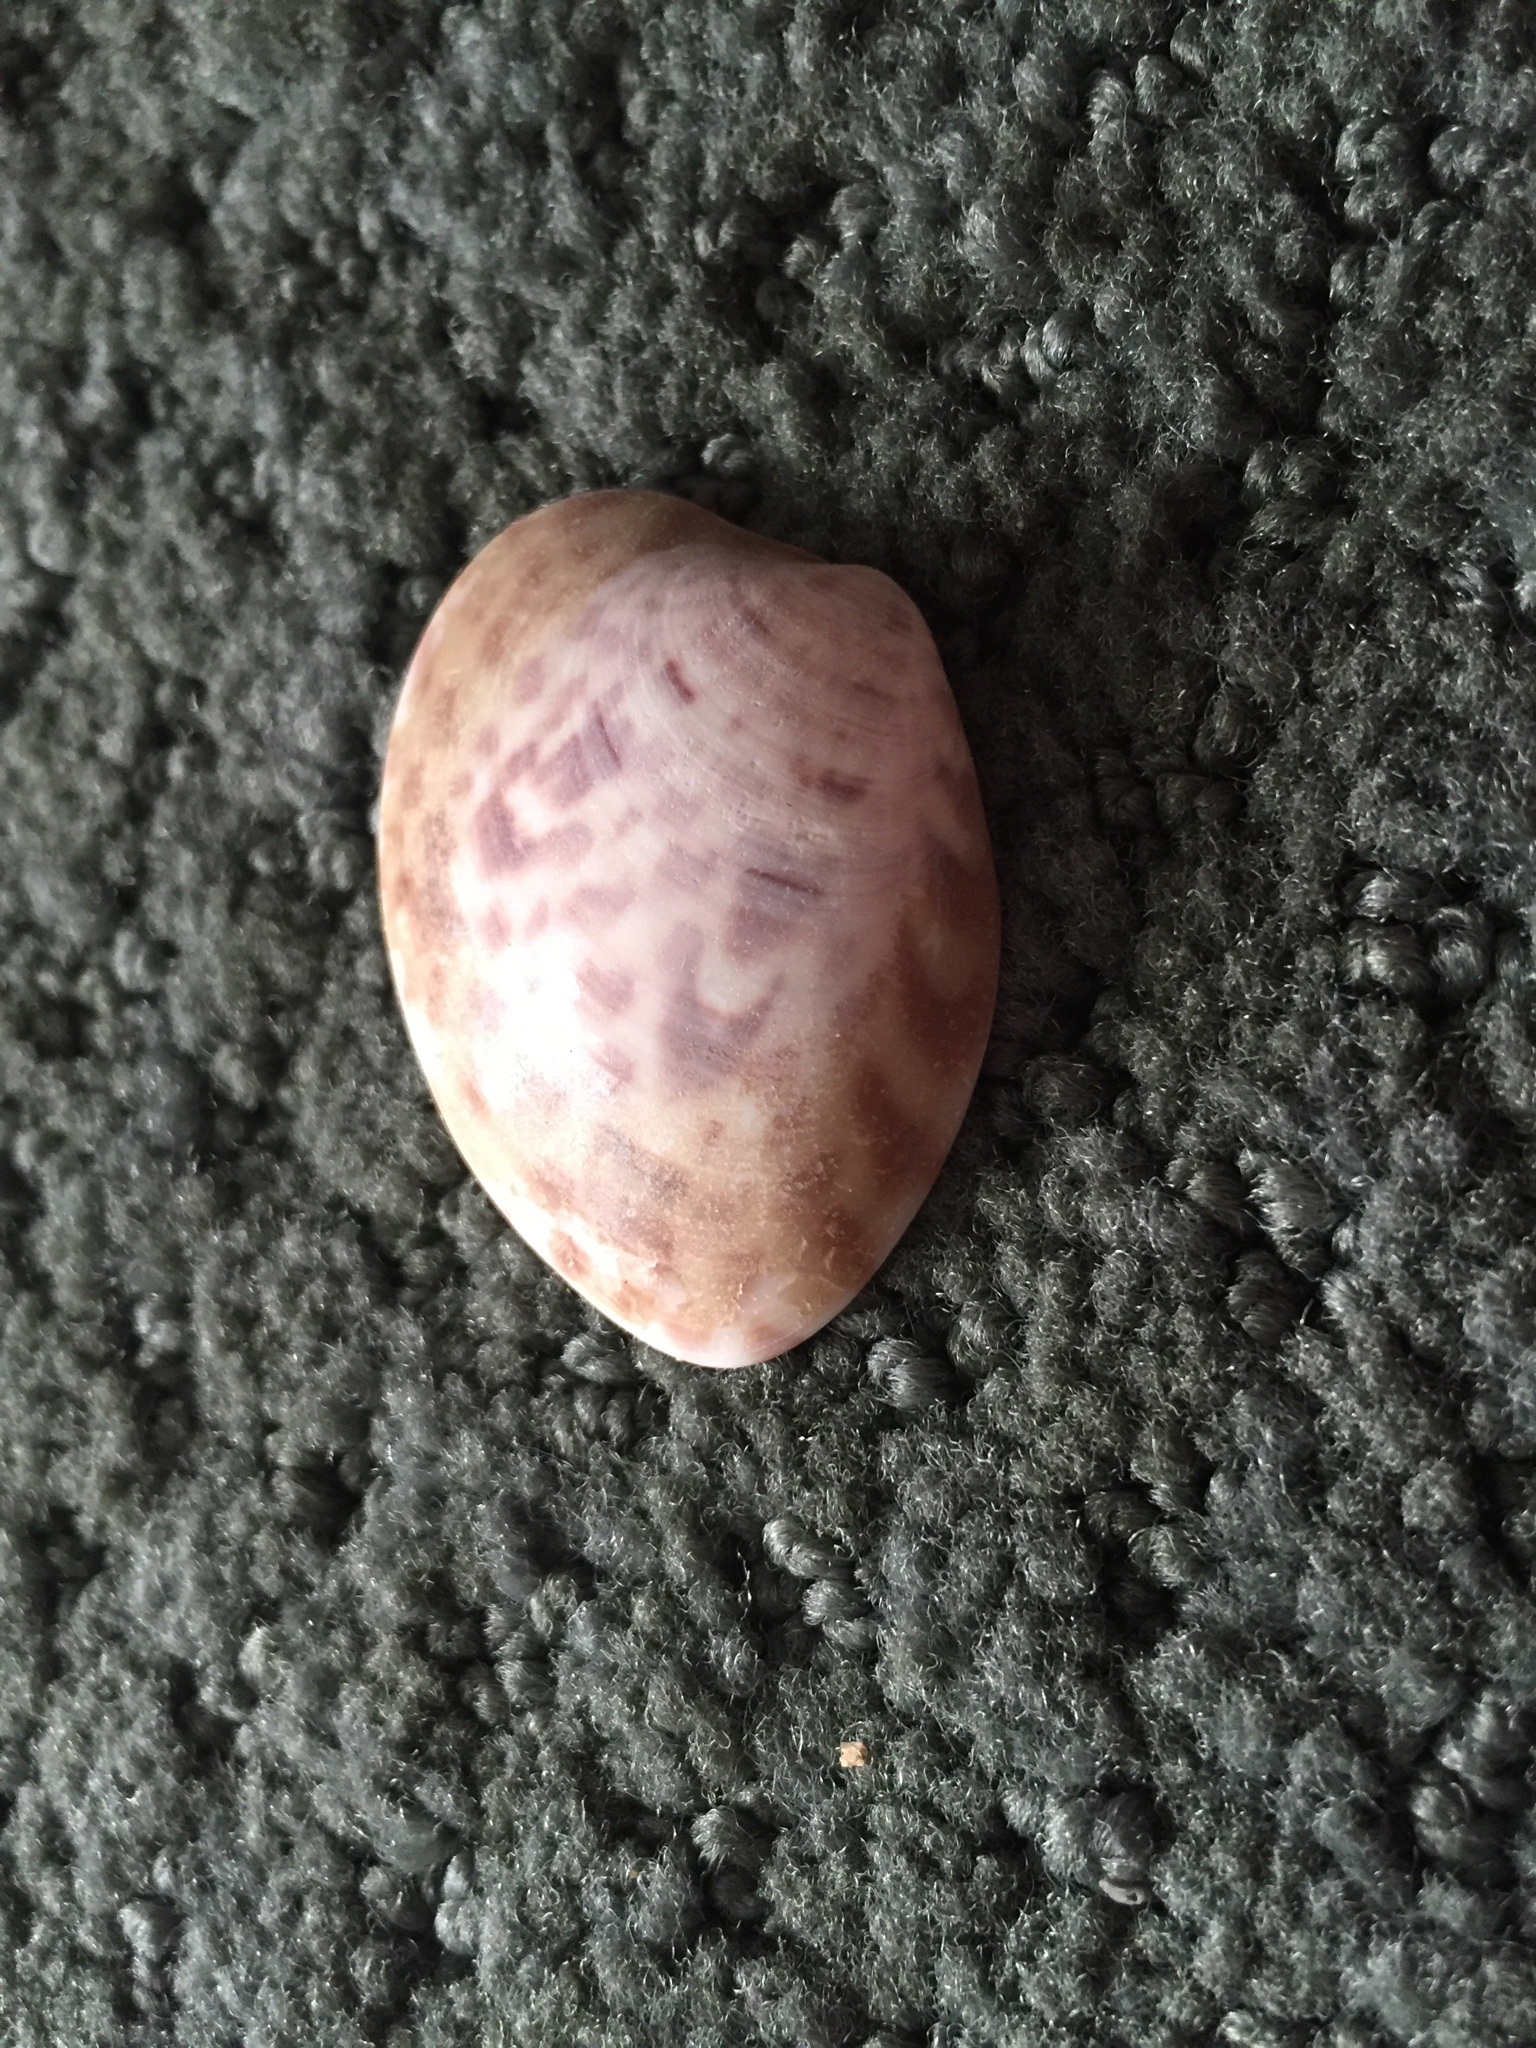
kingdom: Animalia
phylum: Mollusca
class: Bivalvia
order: Venerida
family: Veneridae
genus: Megapitaria
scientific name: Megapitaria maculata
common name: Calico clam
